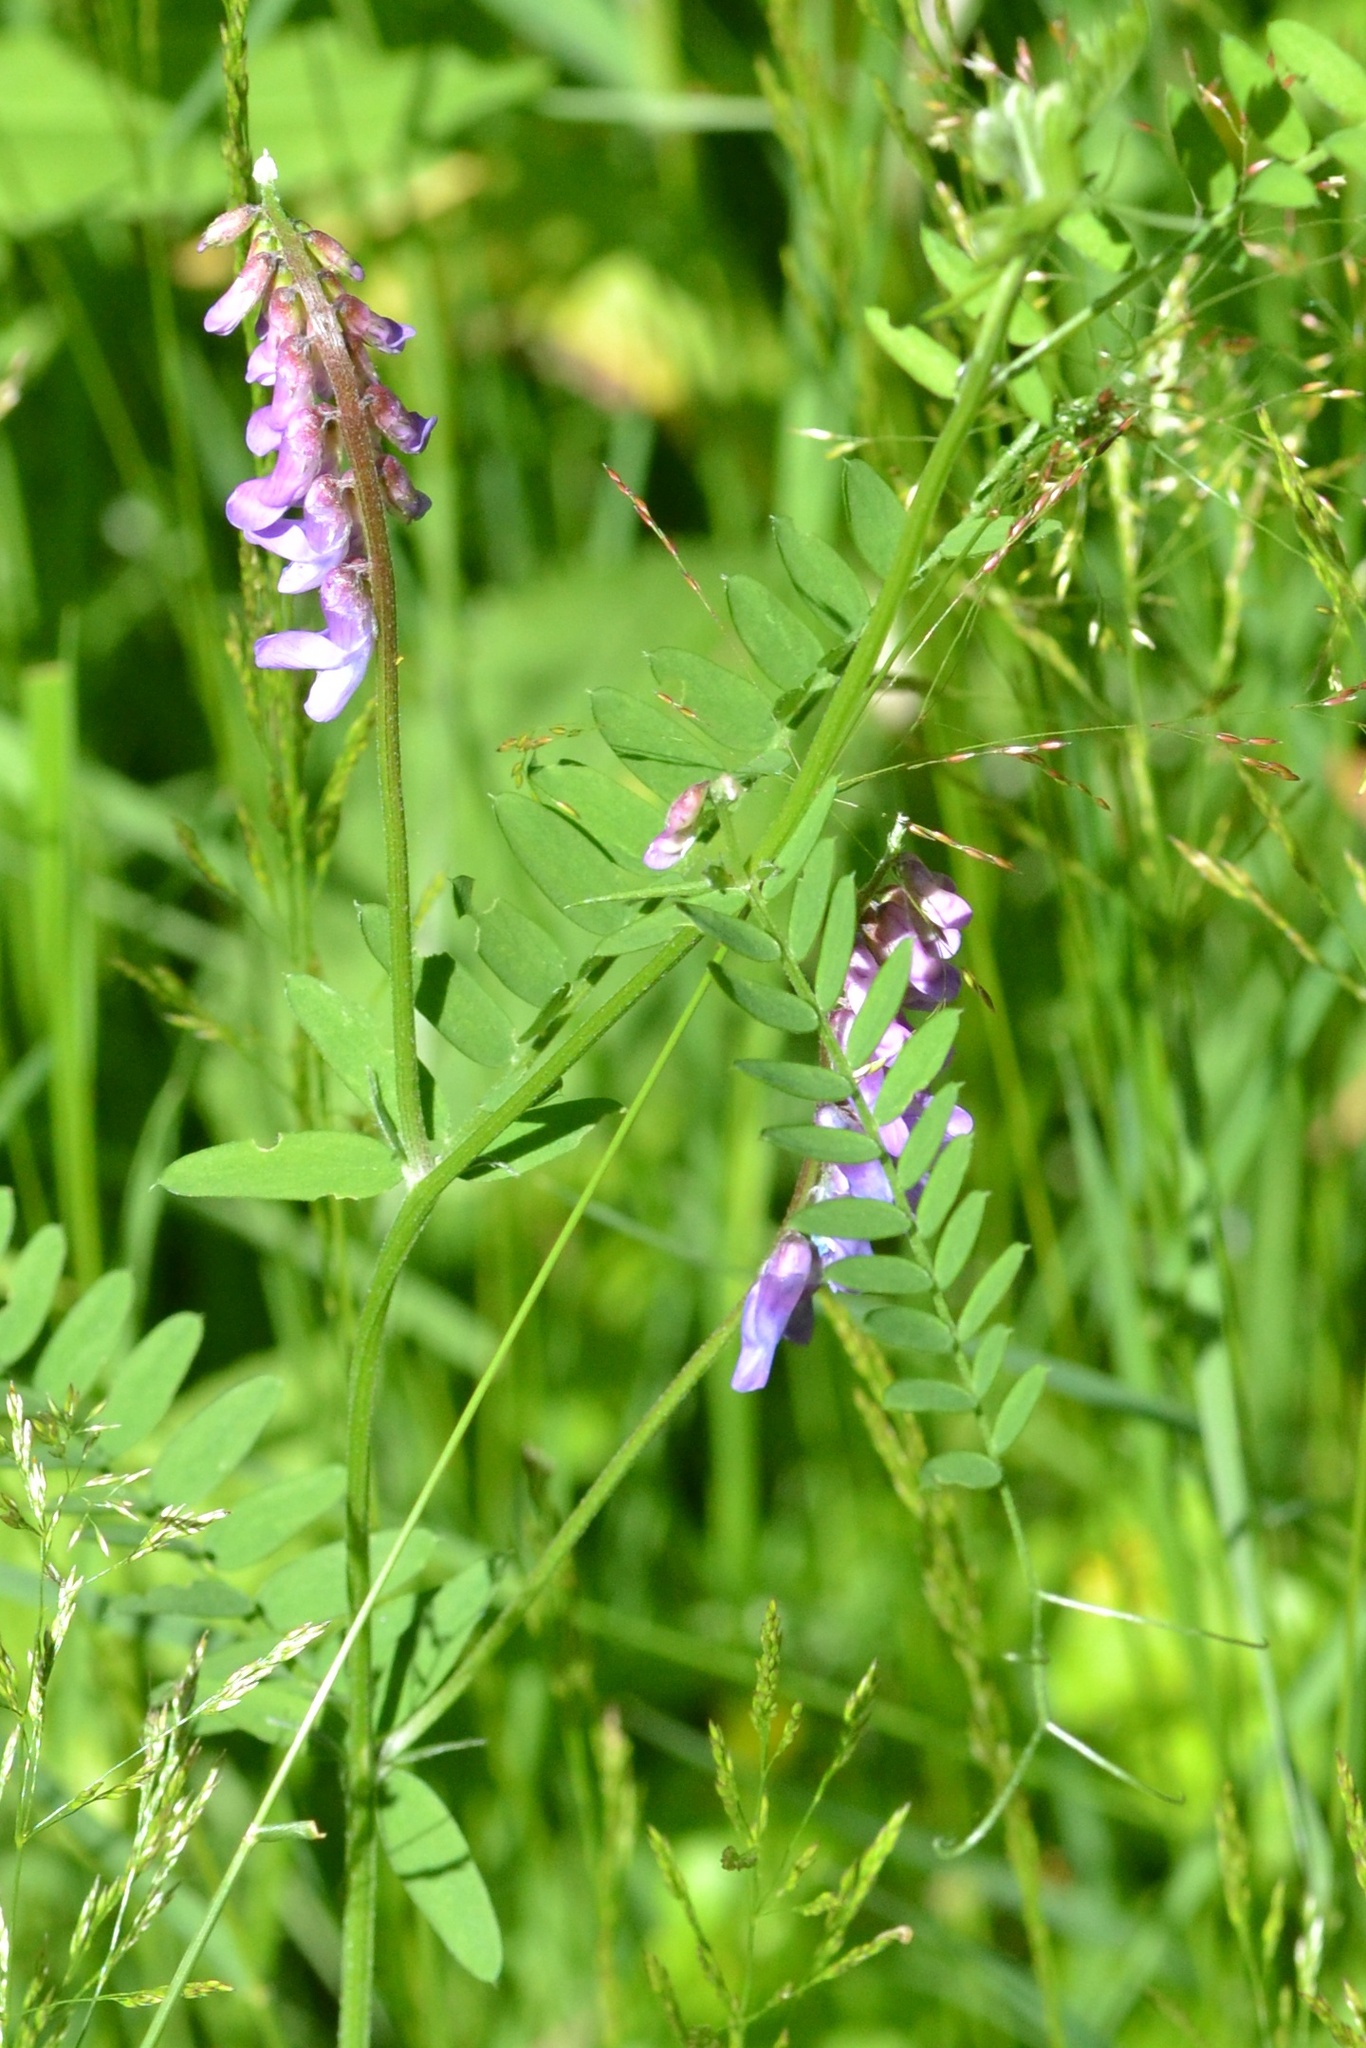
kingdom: Plantae
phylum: Tracheophyta
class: Magnoliopsida
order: Fabales
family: Fabaceae
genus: Vicia
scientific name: Vicia cracca
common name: Bird vetch
